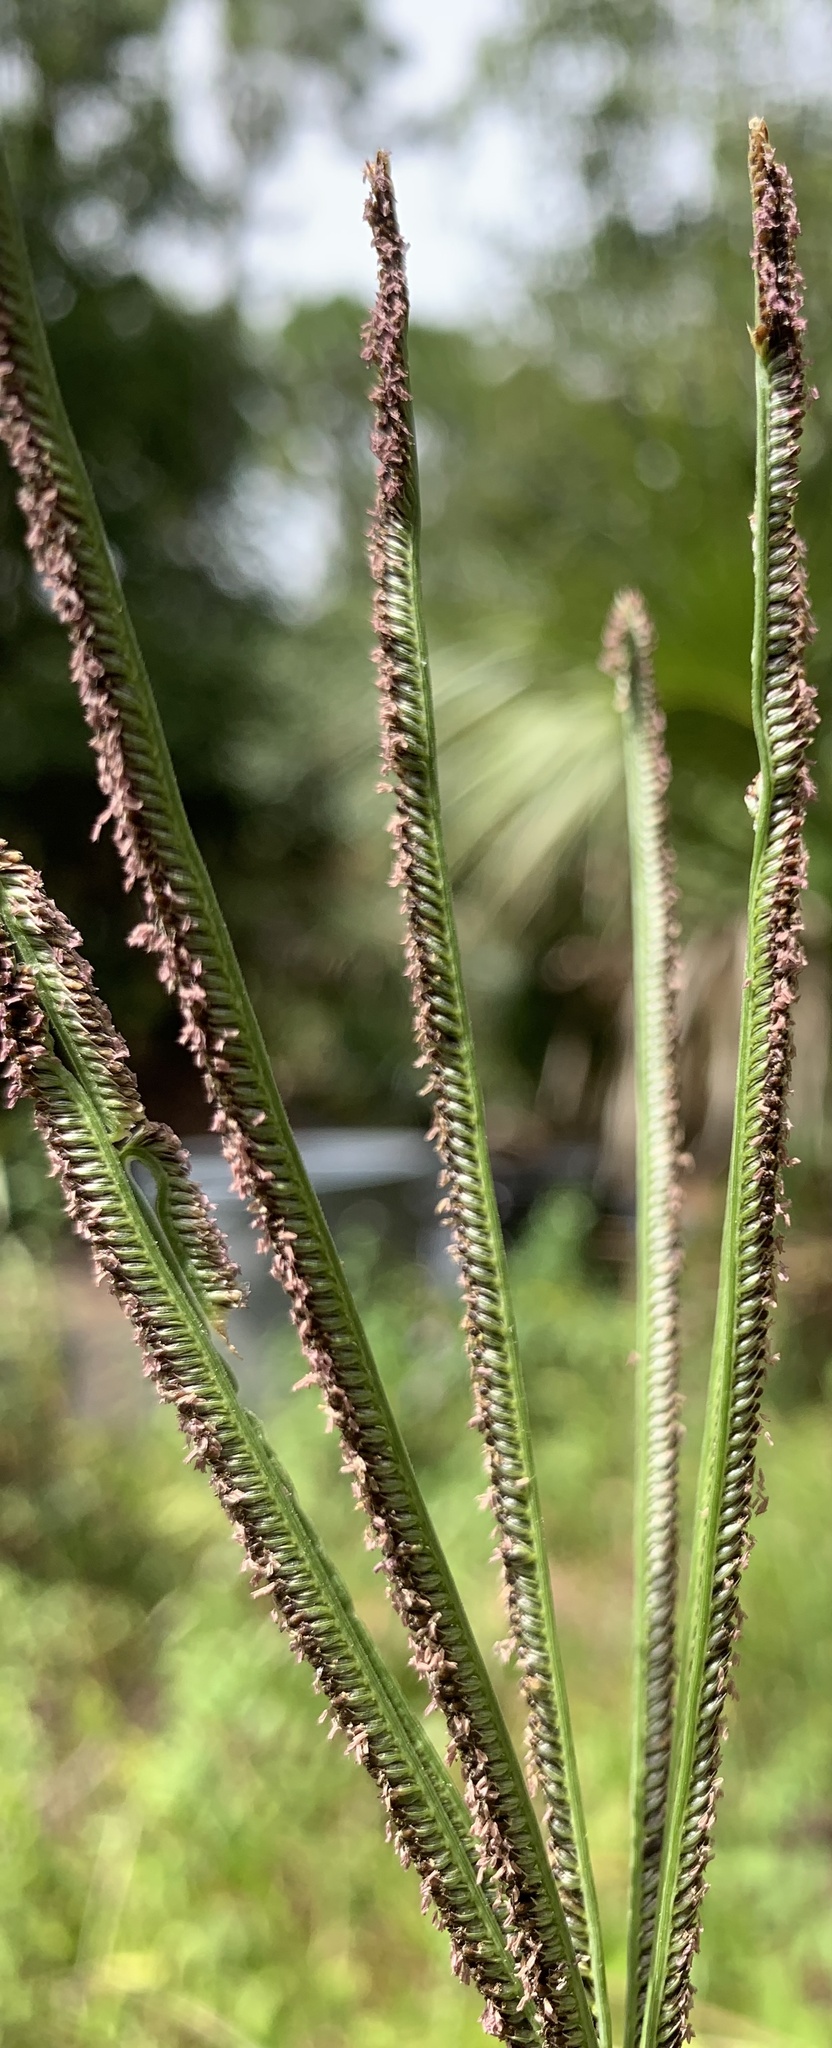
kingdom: Plantae
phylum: Tracheophyta
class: Liliopsida
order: Poales
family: Poaceae
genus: Eustachys
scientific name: Eustachys petraea
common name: Pinewoods fingergrass
